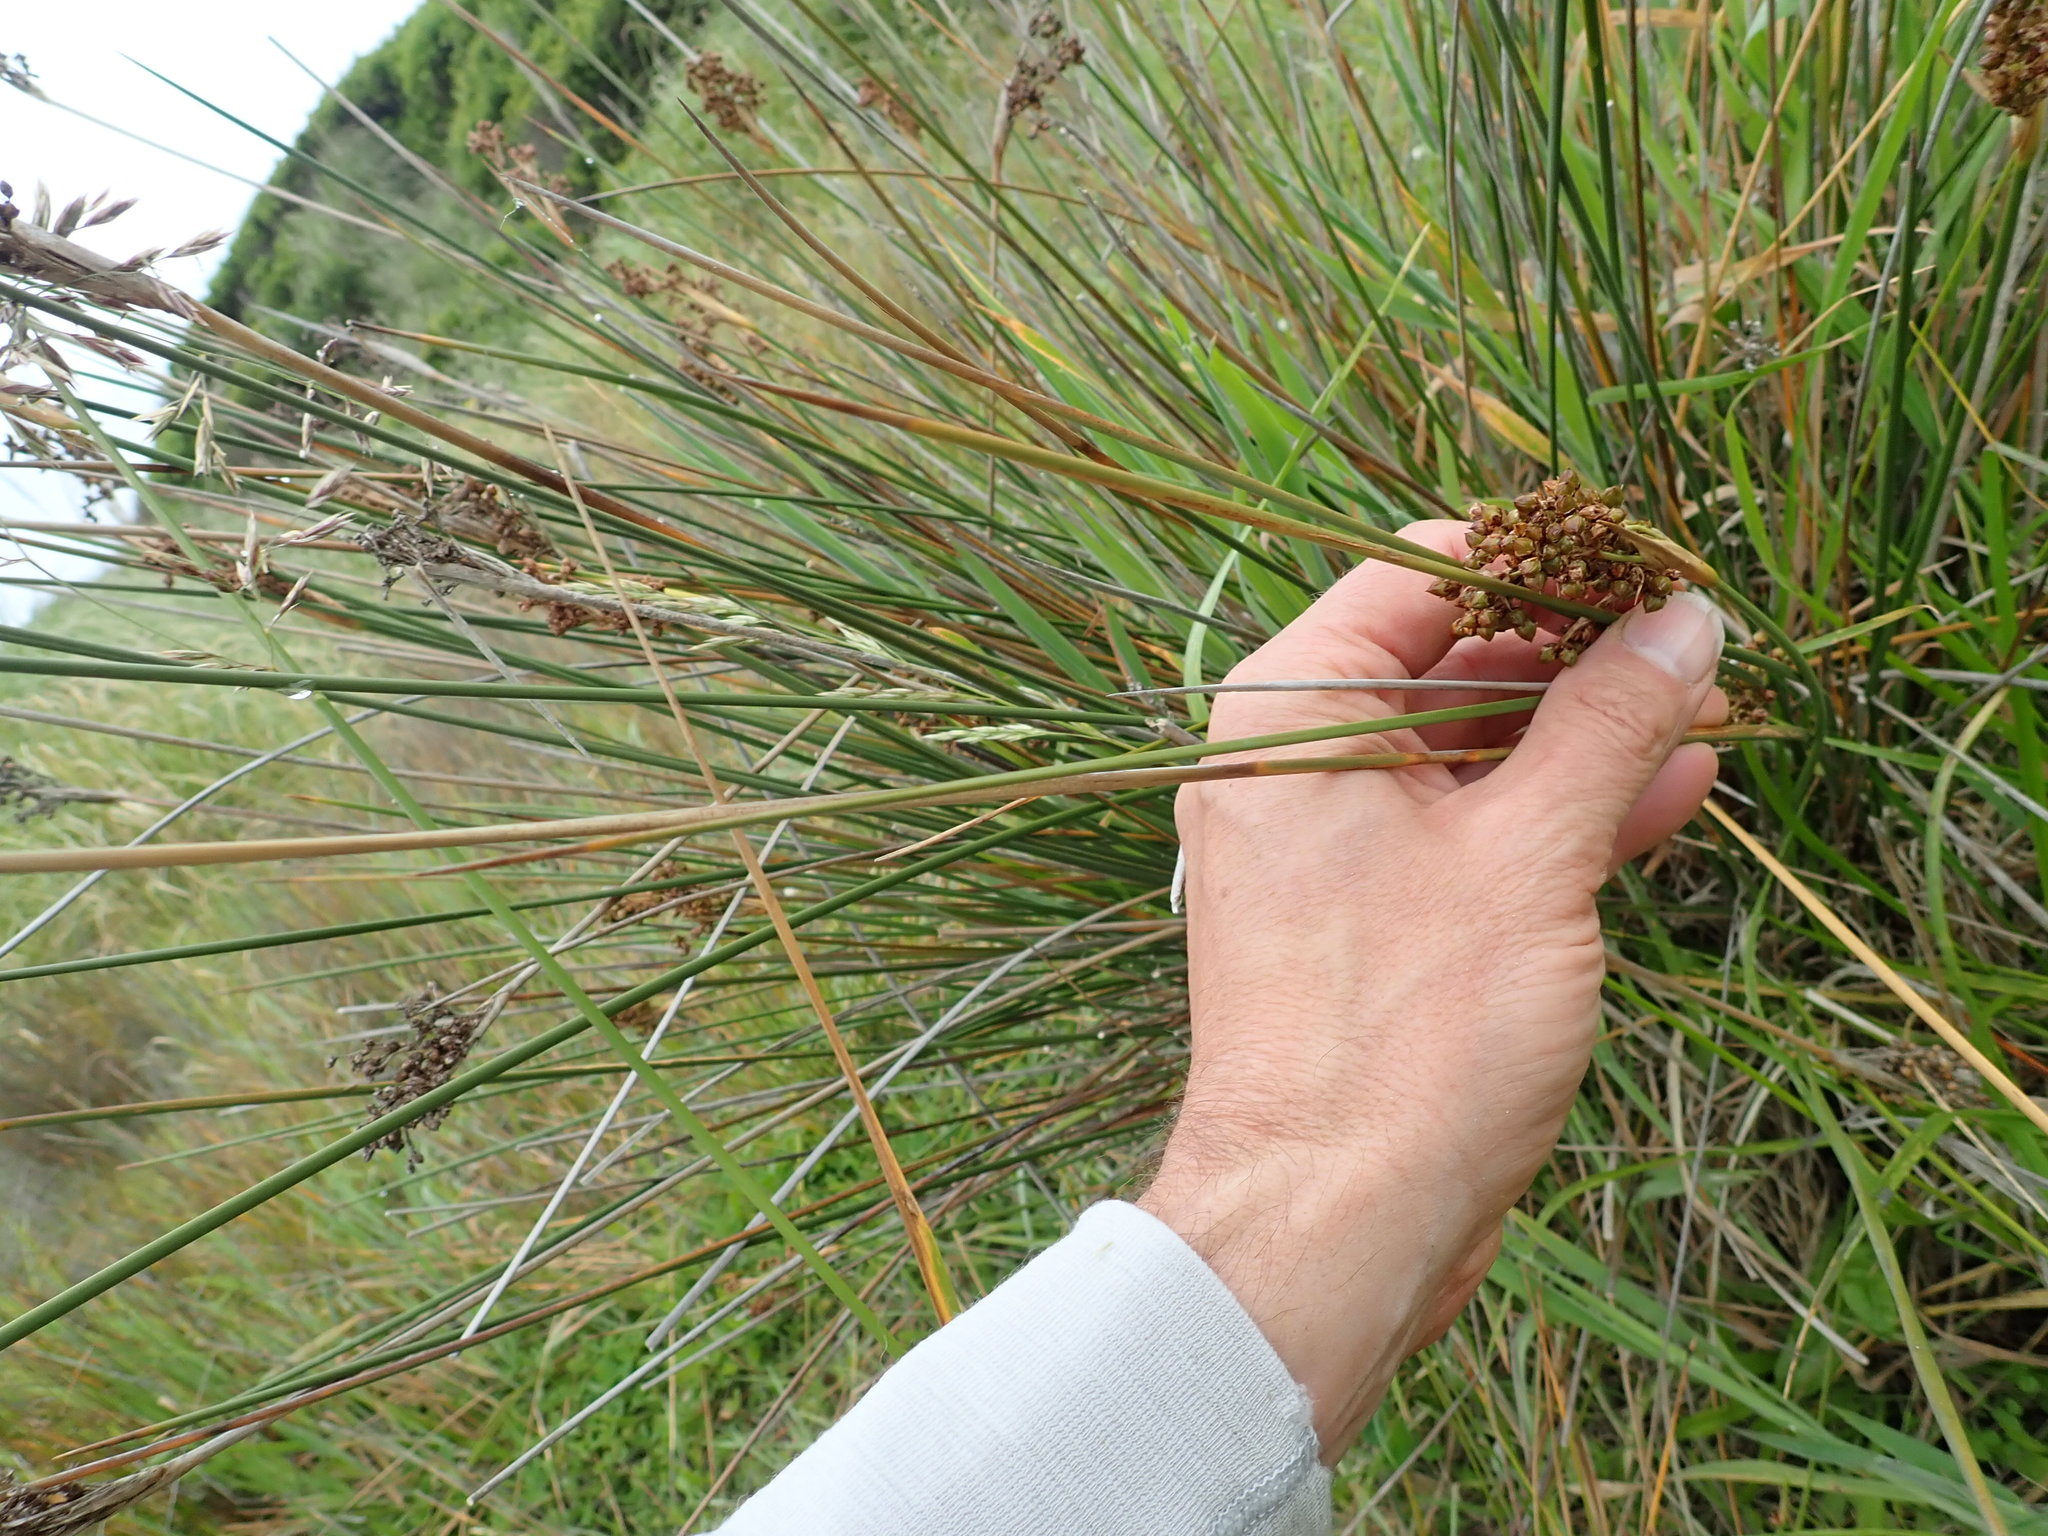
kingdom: Plantae
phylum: Tracheophyta
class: Liliopsida
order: Poales
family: Juncaceae
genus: Juncus
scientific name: Juncus acutus
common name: Sharp rush
